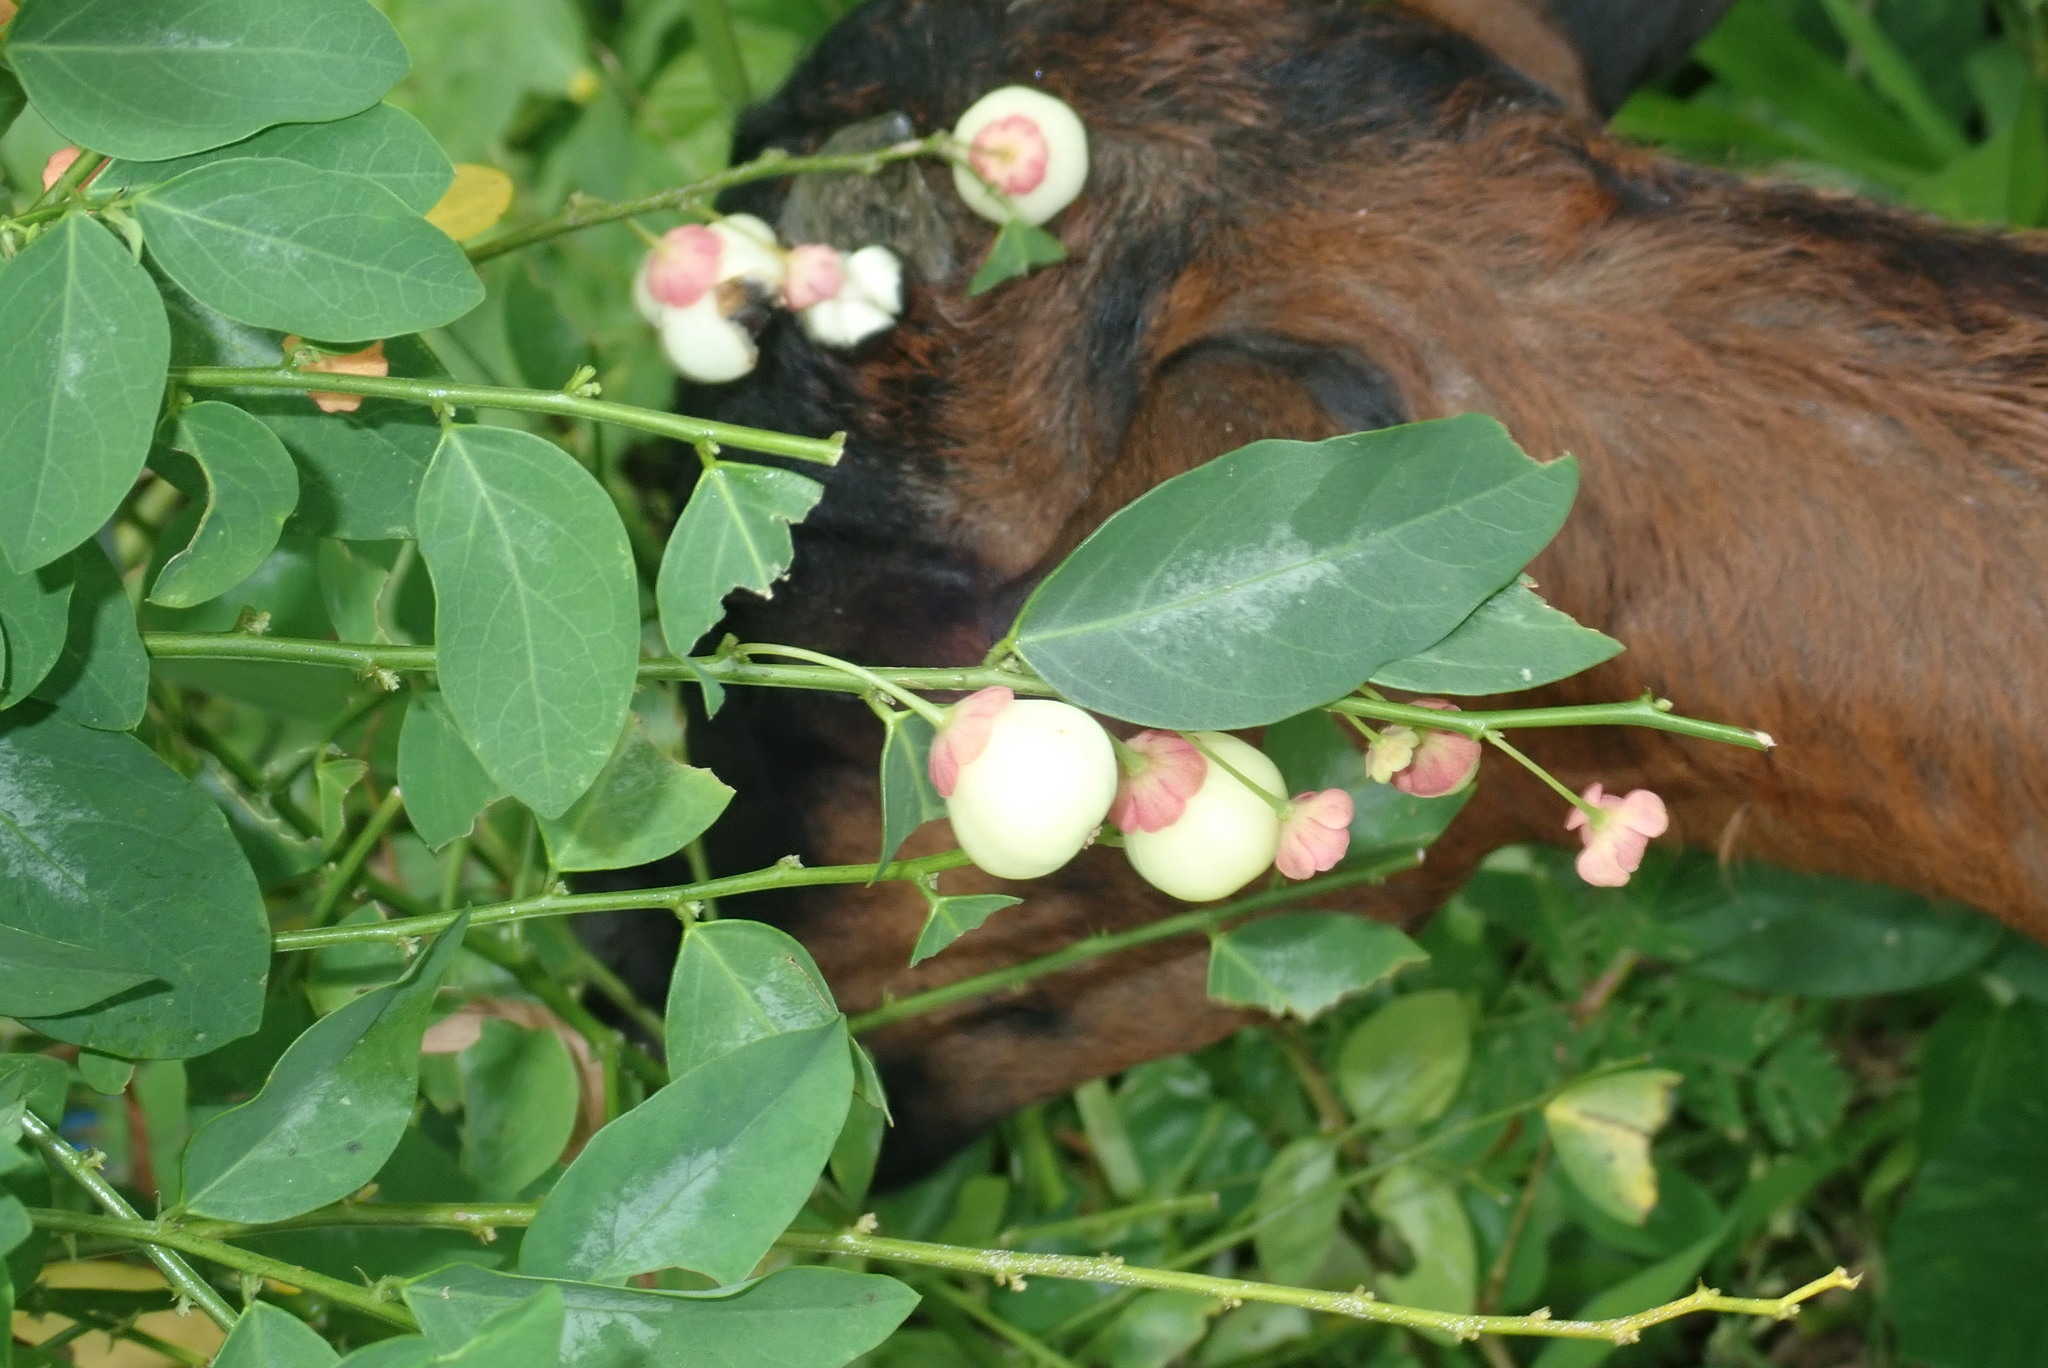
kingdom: Plantae
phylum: Tracheophyta
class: Magnoliopsida
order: Malpighiales
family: Phyllanthaceae
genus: Breynia
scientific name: Breynia androgyna
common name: Star gooseberry
